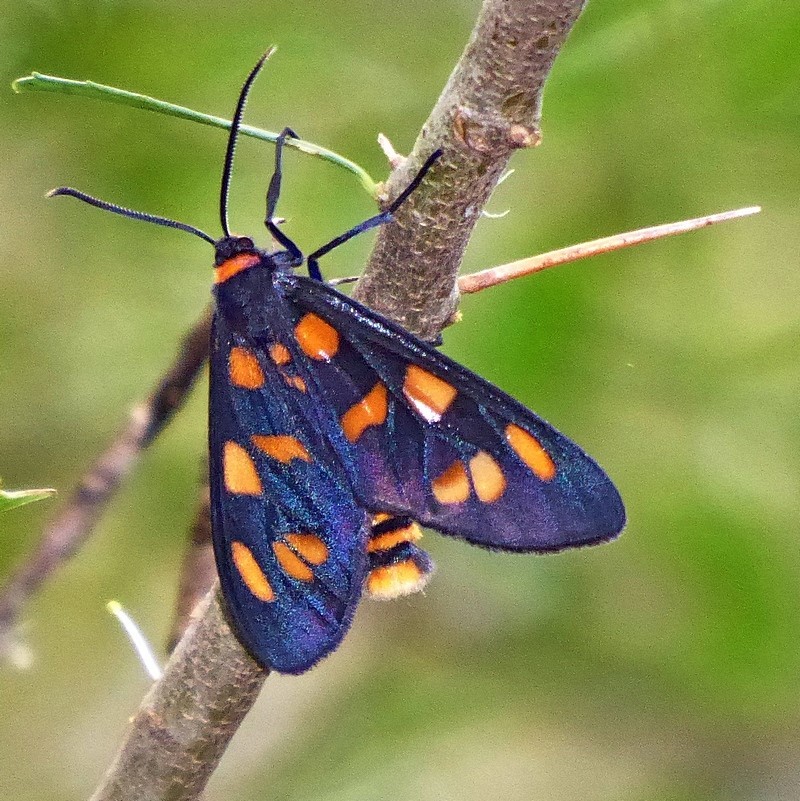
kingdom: Animalia
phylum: Arthropoda
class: Insecta
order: Lepidoptera
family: Erebidae
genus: Amata
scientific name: Amata nigriceps
